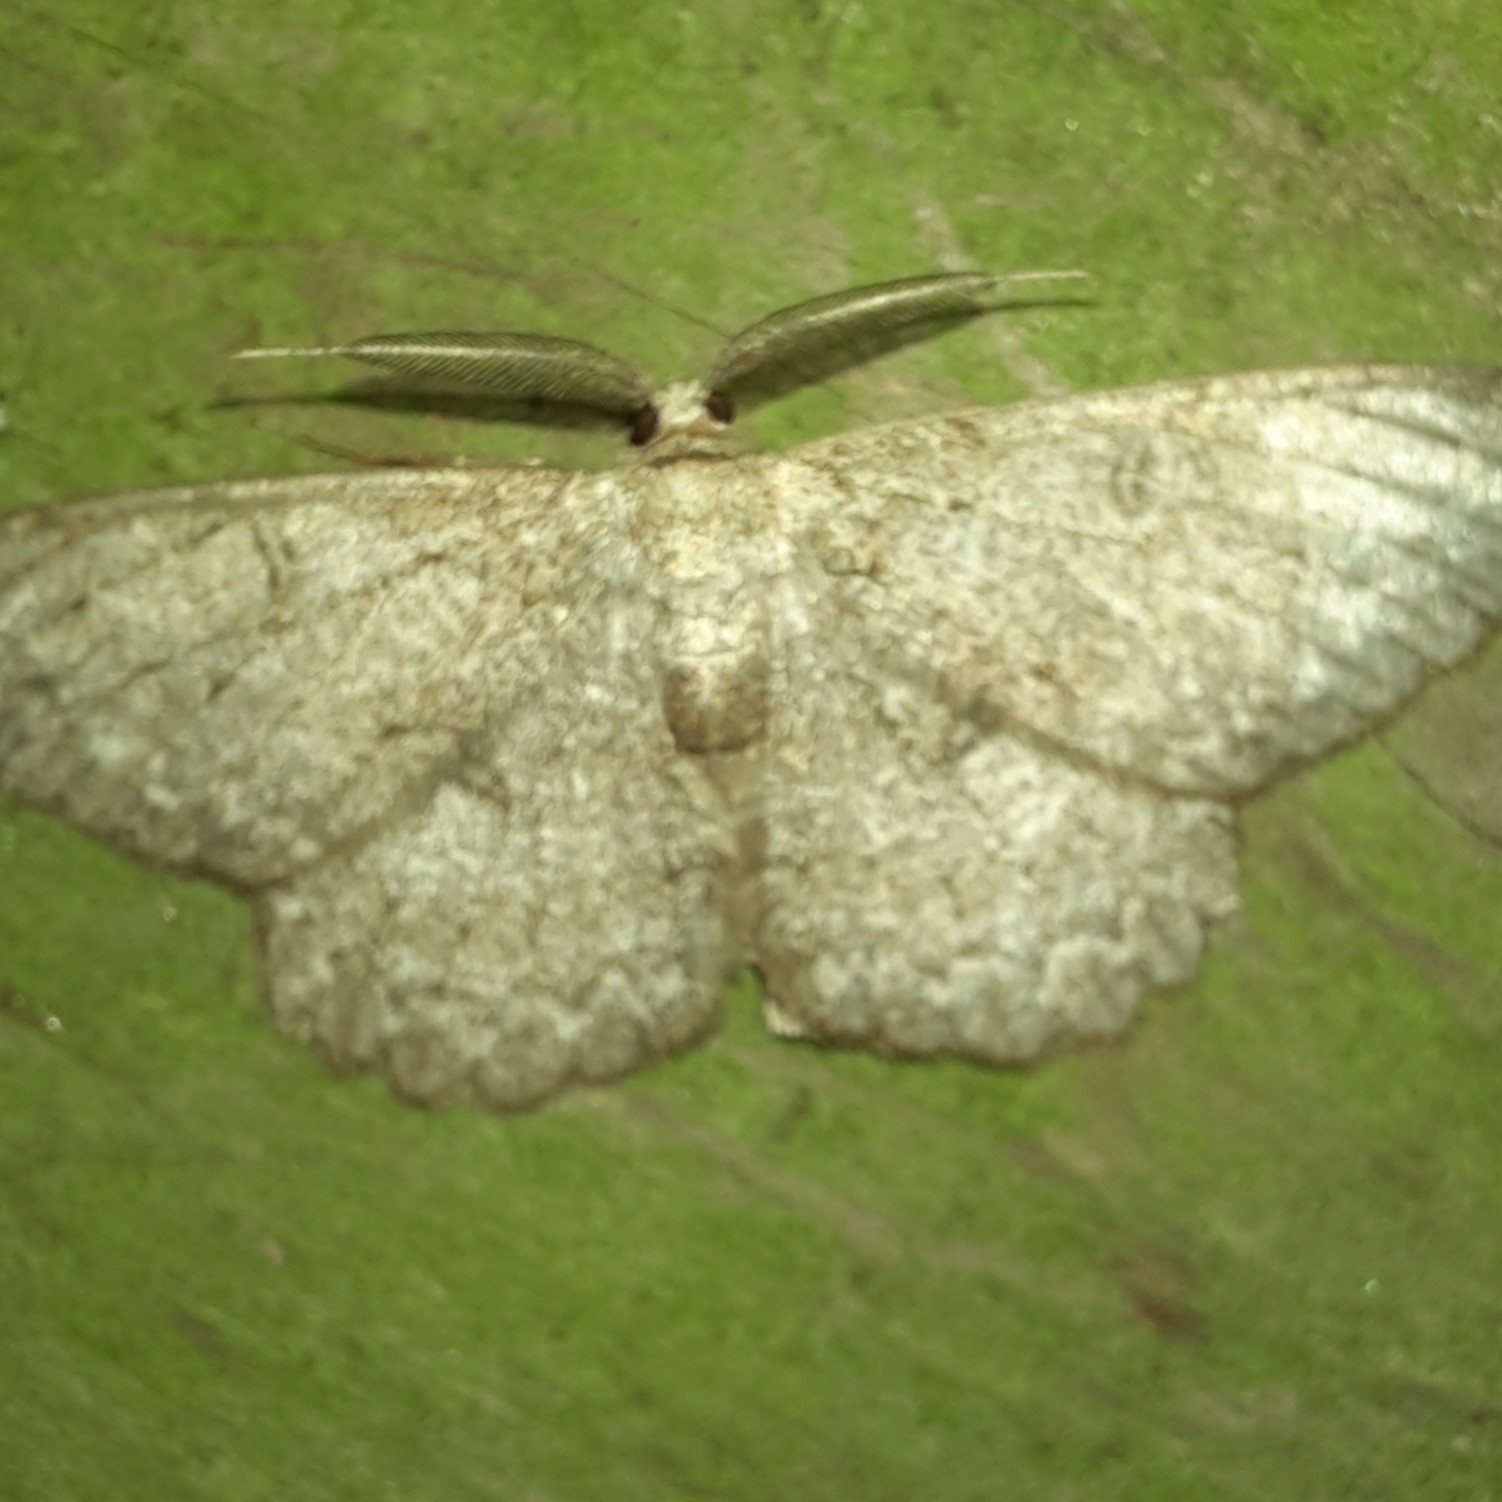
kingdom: Animalia
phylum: Arthropoda
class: Insecta
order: Lepidoptera
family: Geometridae
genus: Hypomecis
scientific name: Hypomecis punctinalis
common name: Pale oak beauty
